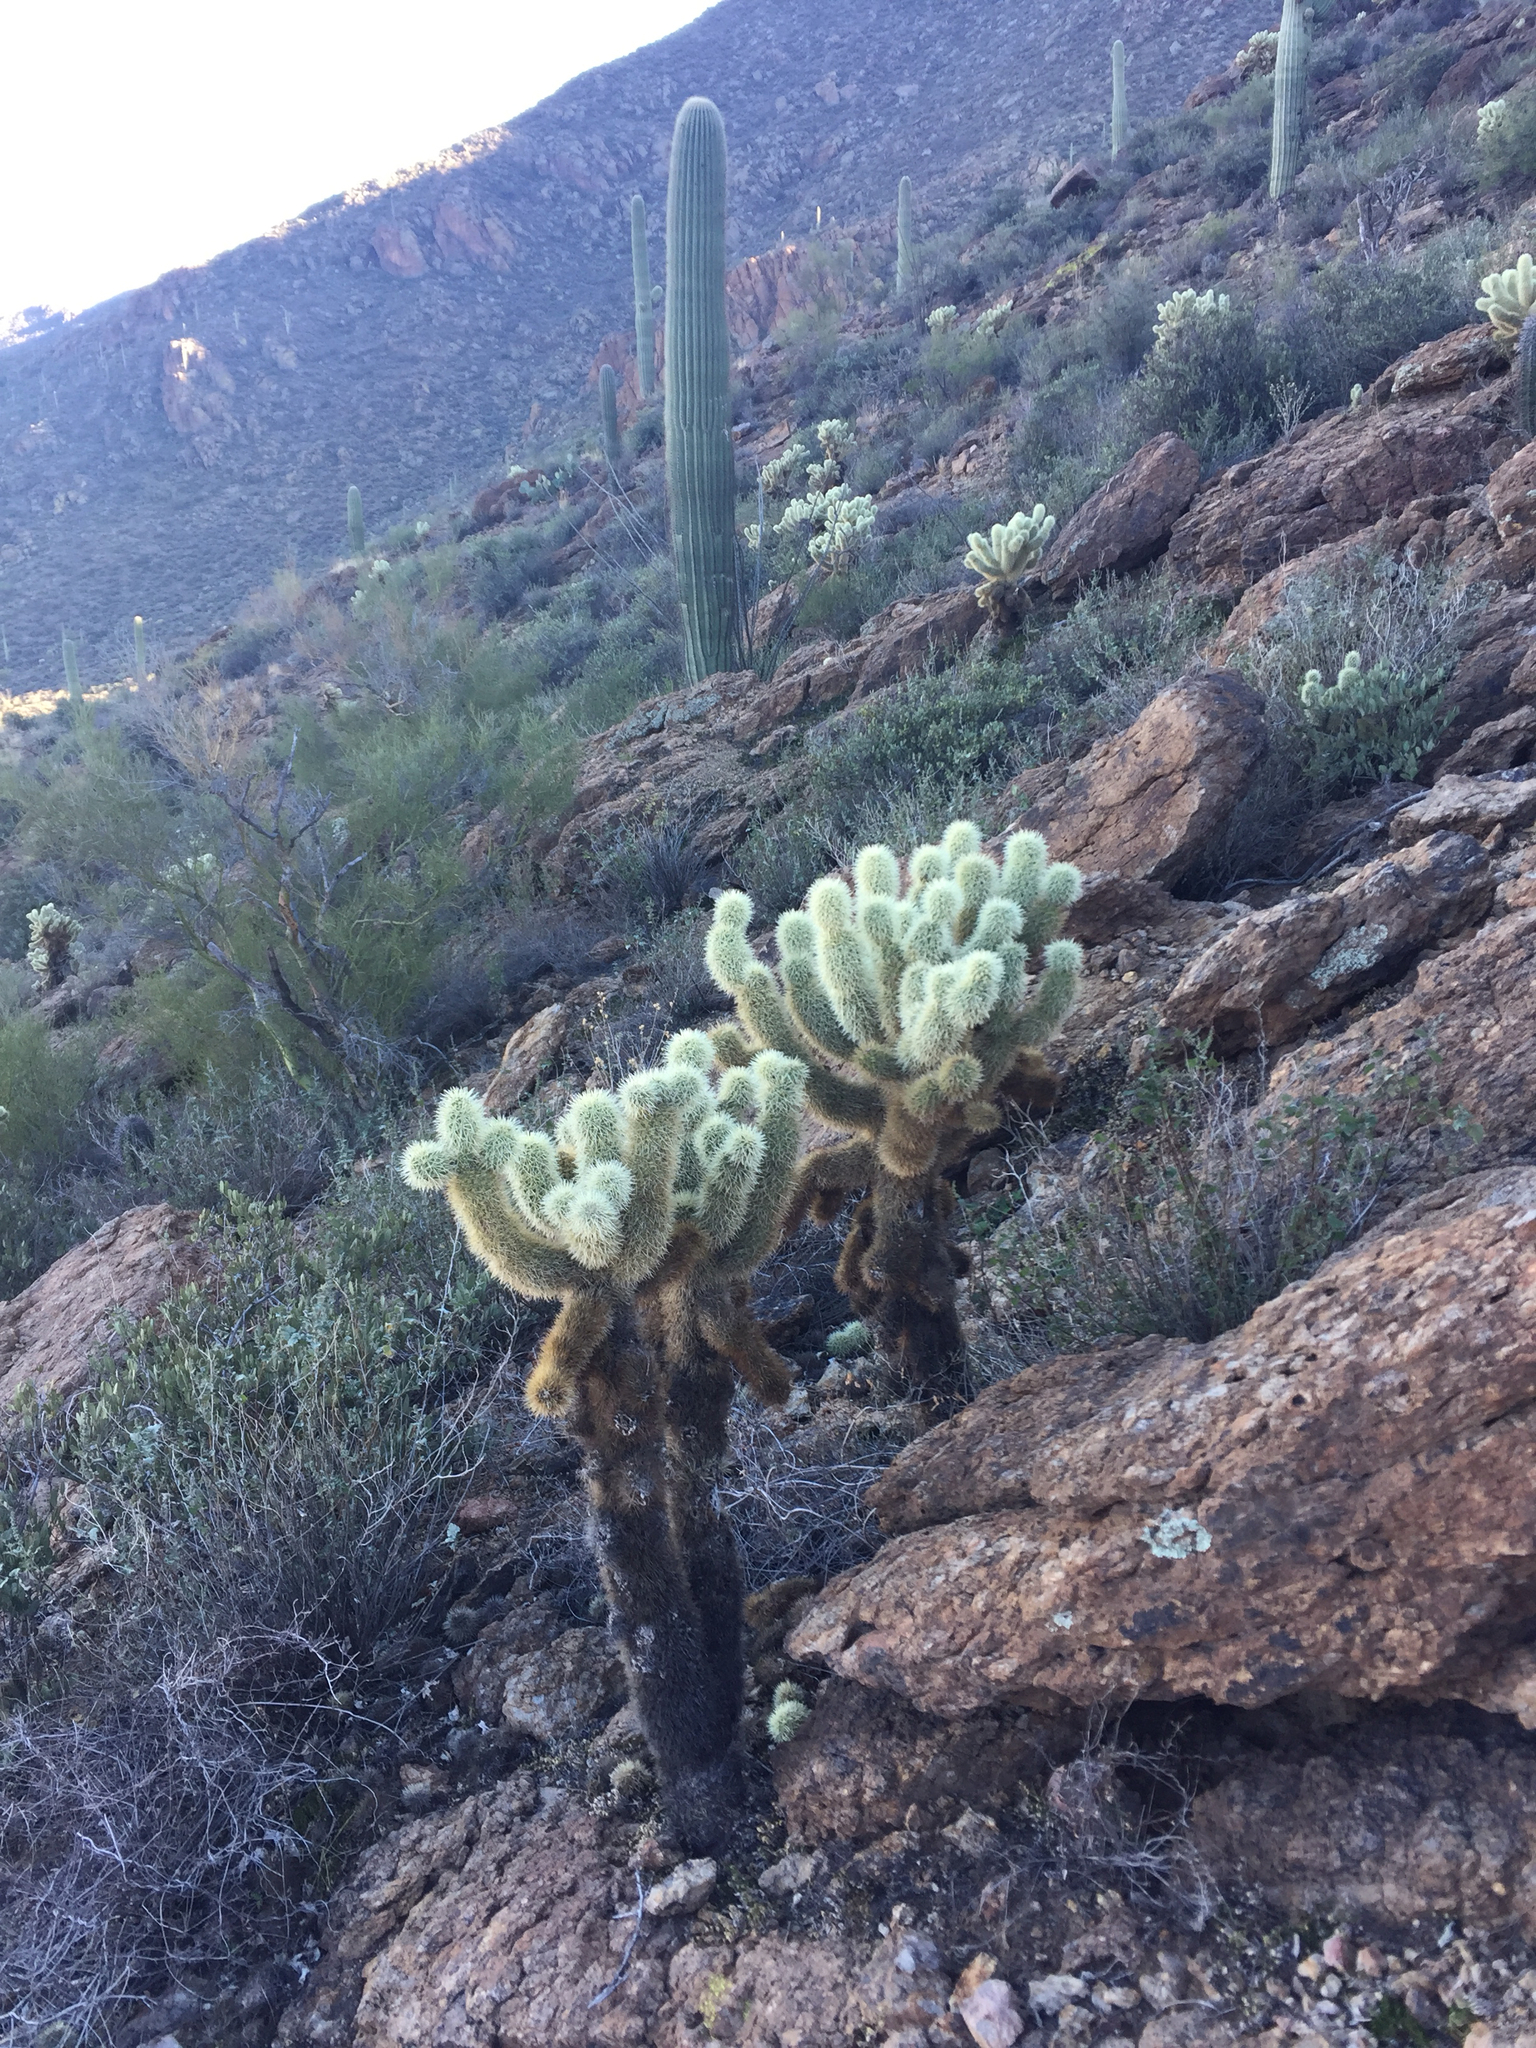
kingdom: Plantae
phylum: Tracheophyta
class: Magnoliopsida
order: Caryophyllales
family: Cactaceae
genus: Cylindropuntia
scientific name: Cylindropuntia fosbergii
